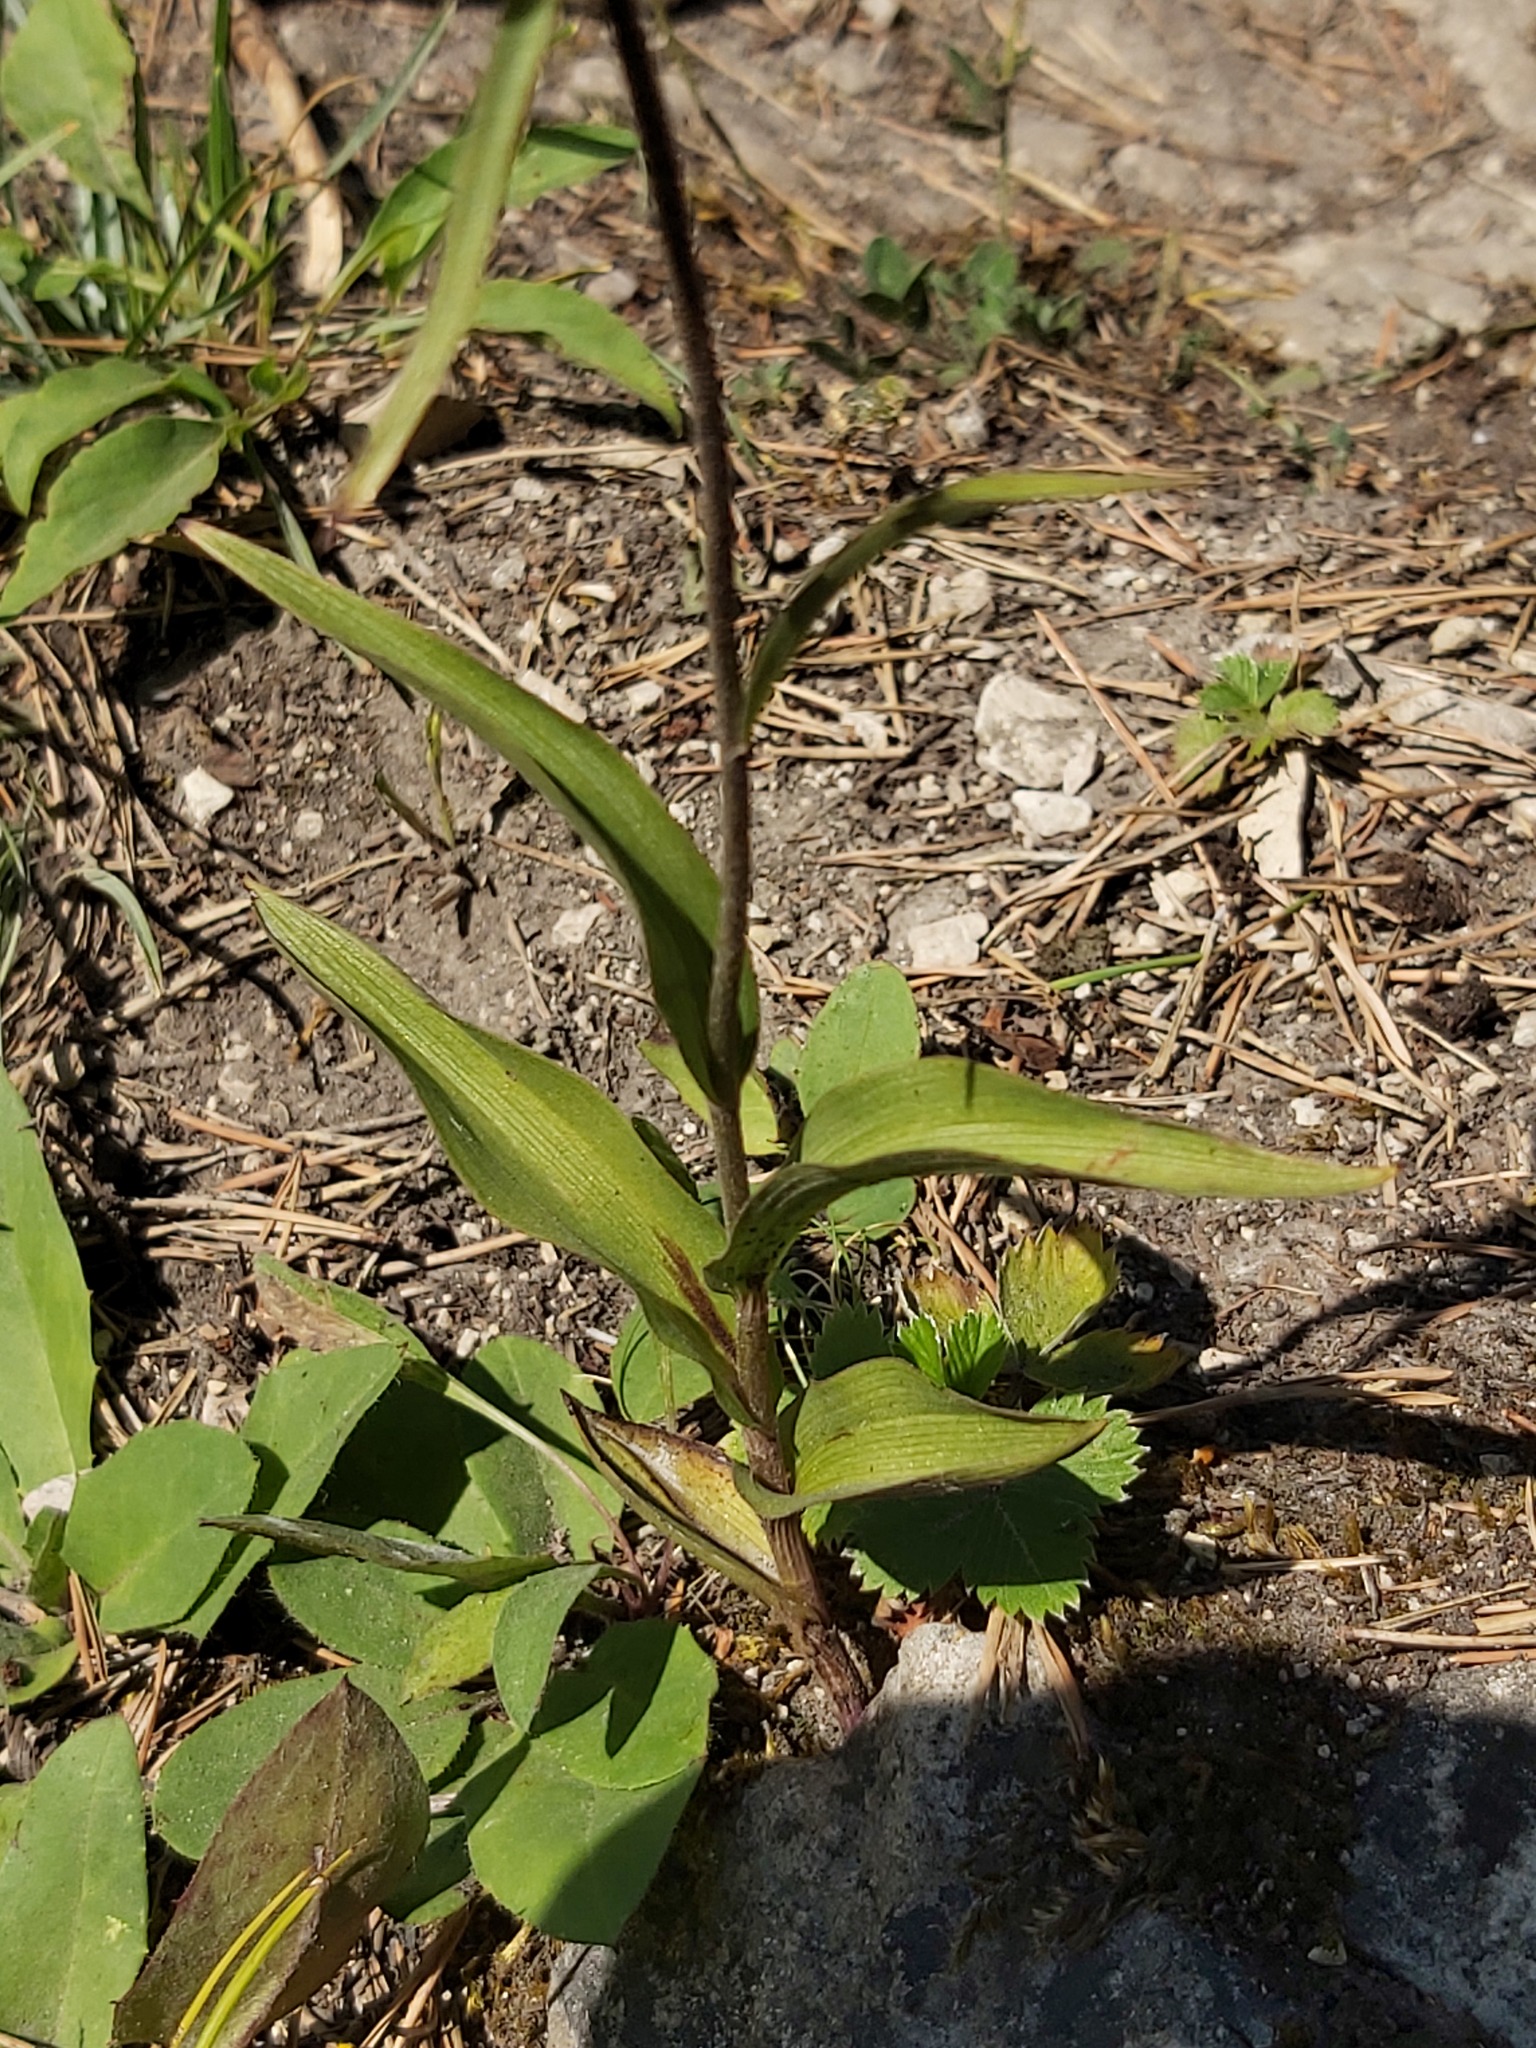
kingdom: Plantae
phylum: Tracheophyta
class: Liliopsida
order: Asparagales
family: Orchidaceae
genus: Epipactis
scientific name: Epipactis atrorubens
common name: Dark-red helleborine
